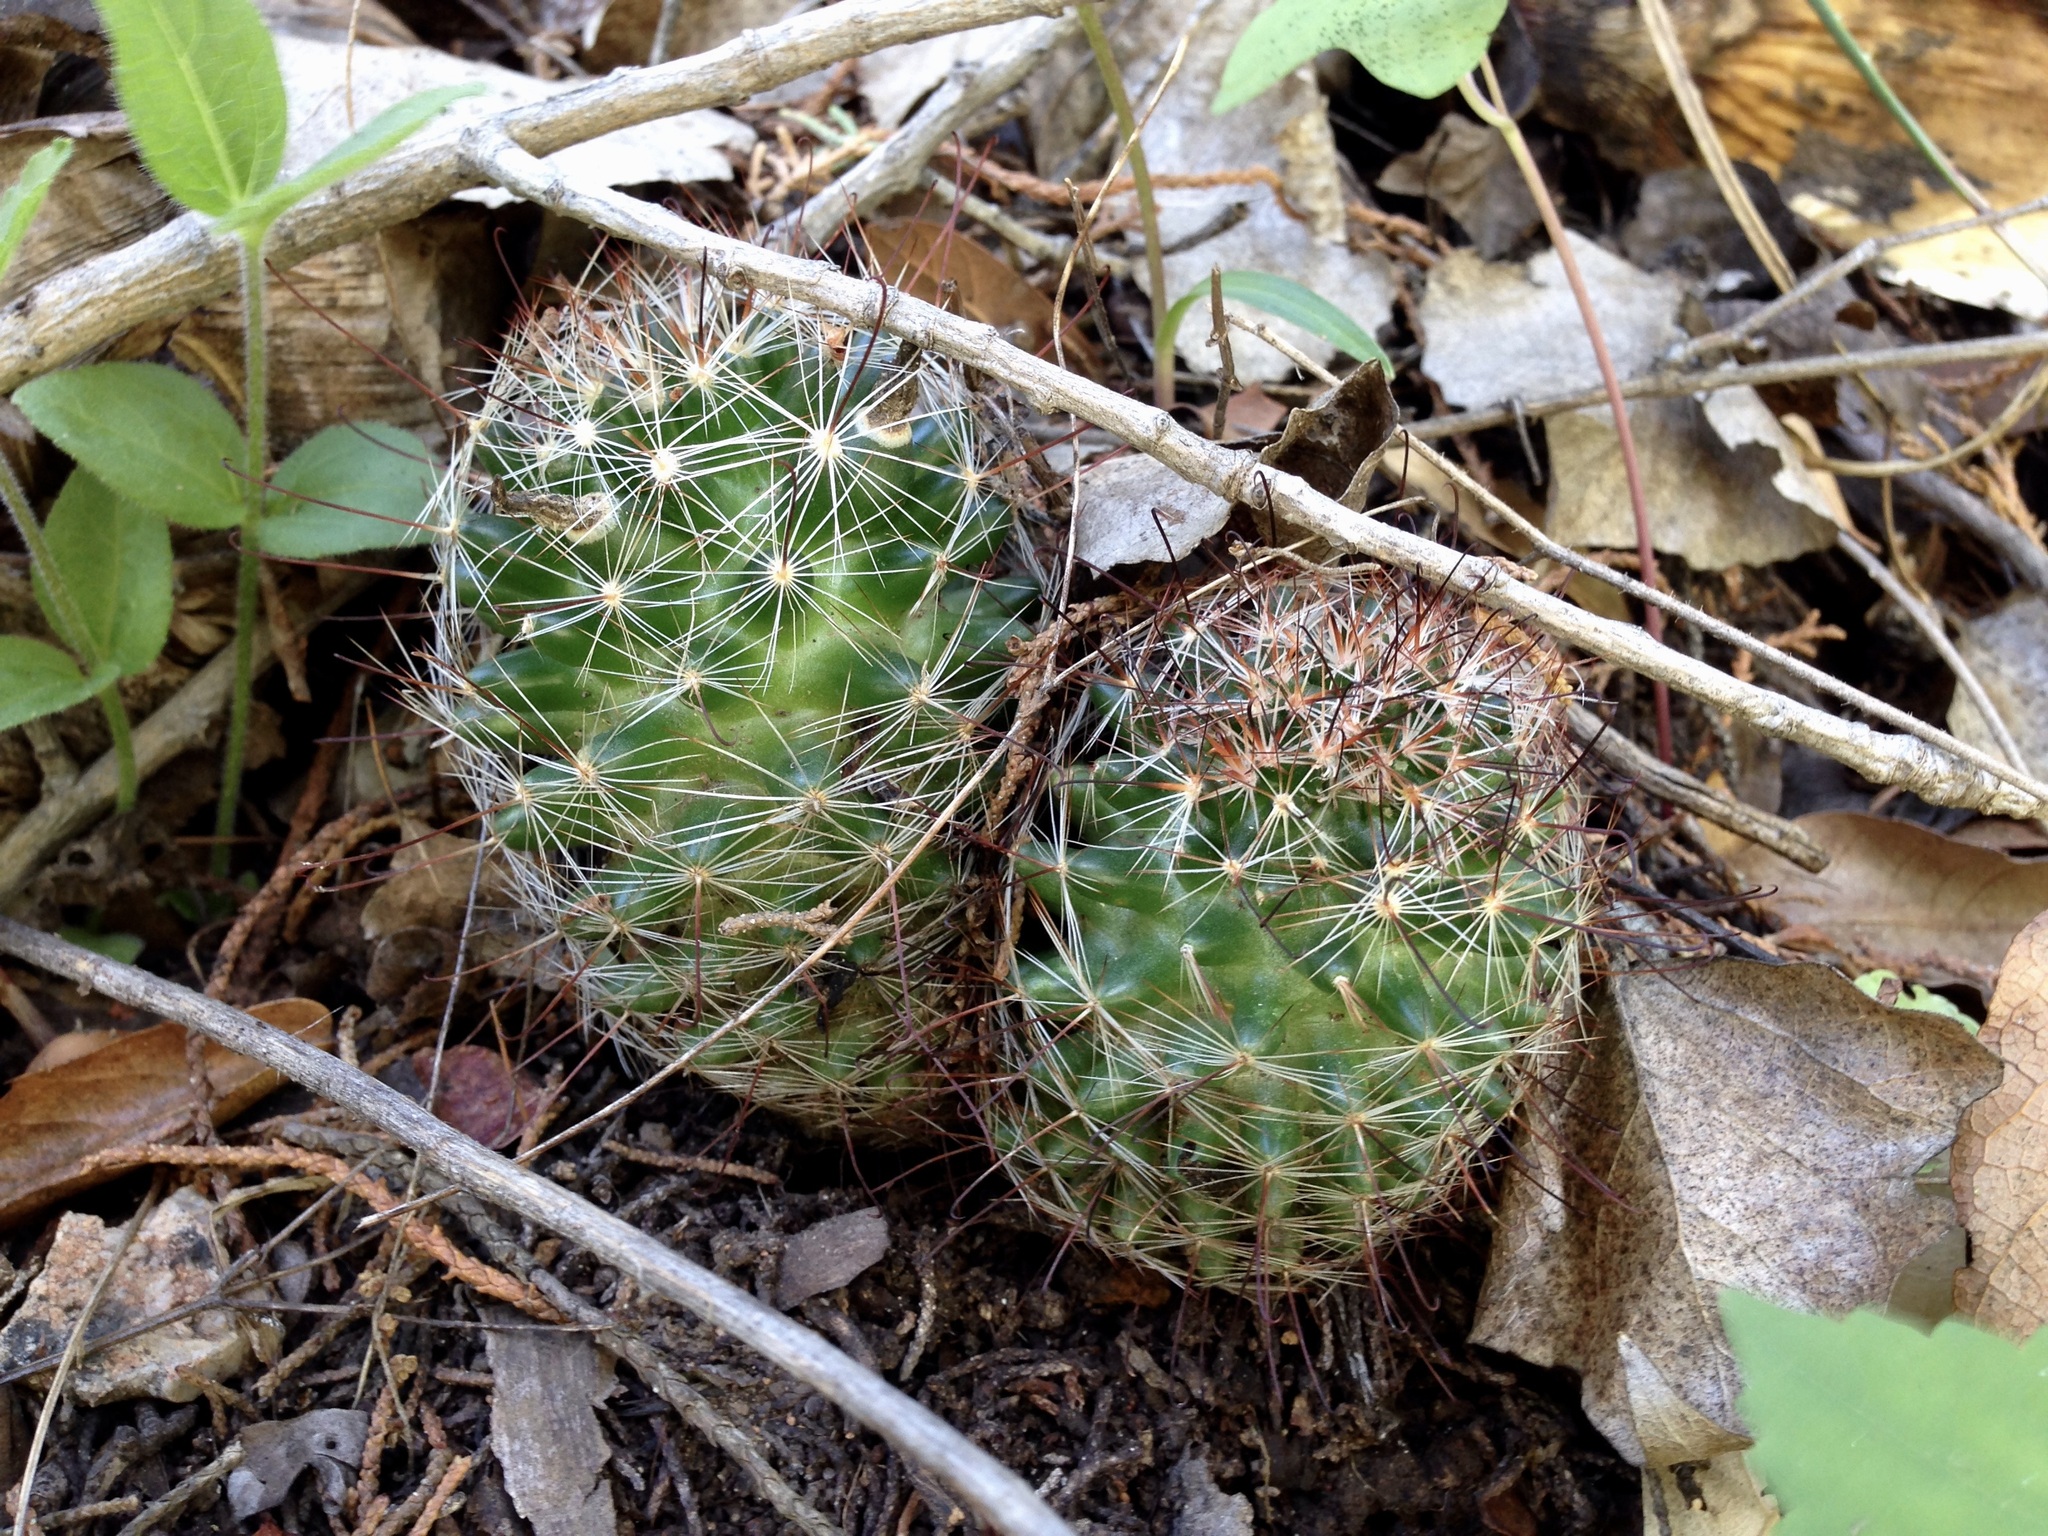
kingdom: Plantae
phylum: Tracheophyta
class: Magnoliopsida
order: Caryophyllales
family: Cactaceae
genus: Cochemiea
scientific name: Cochemiea wrightii
